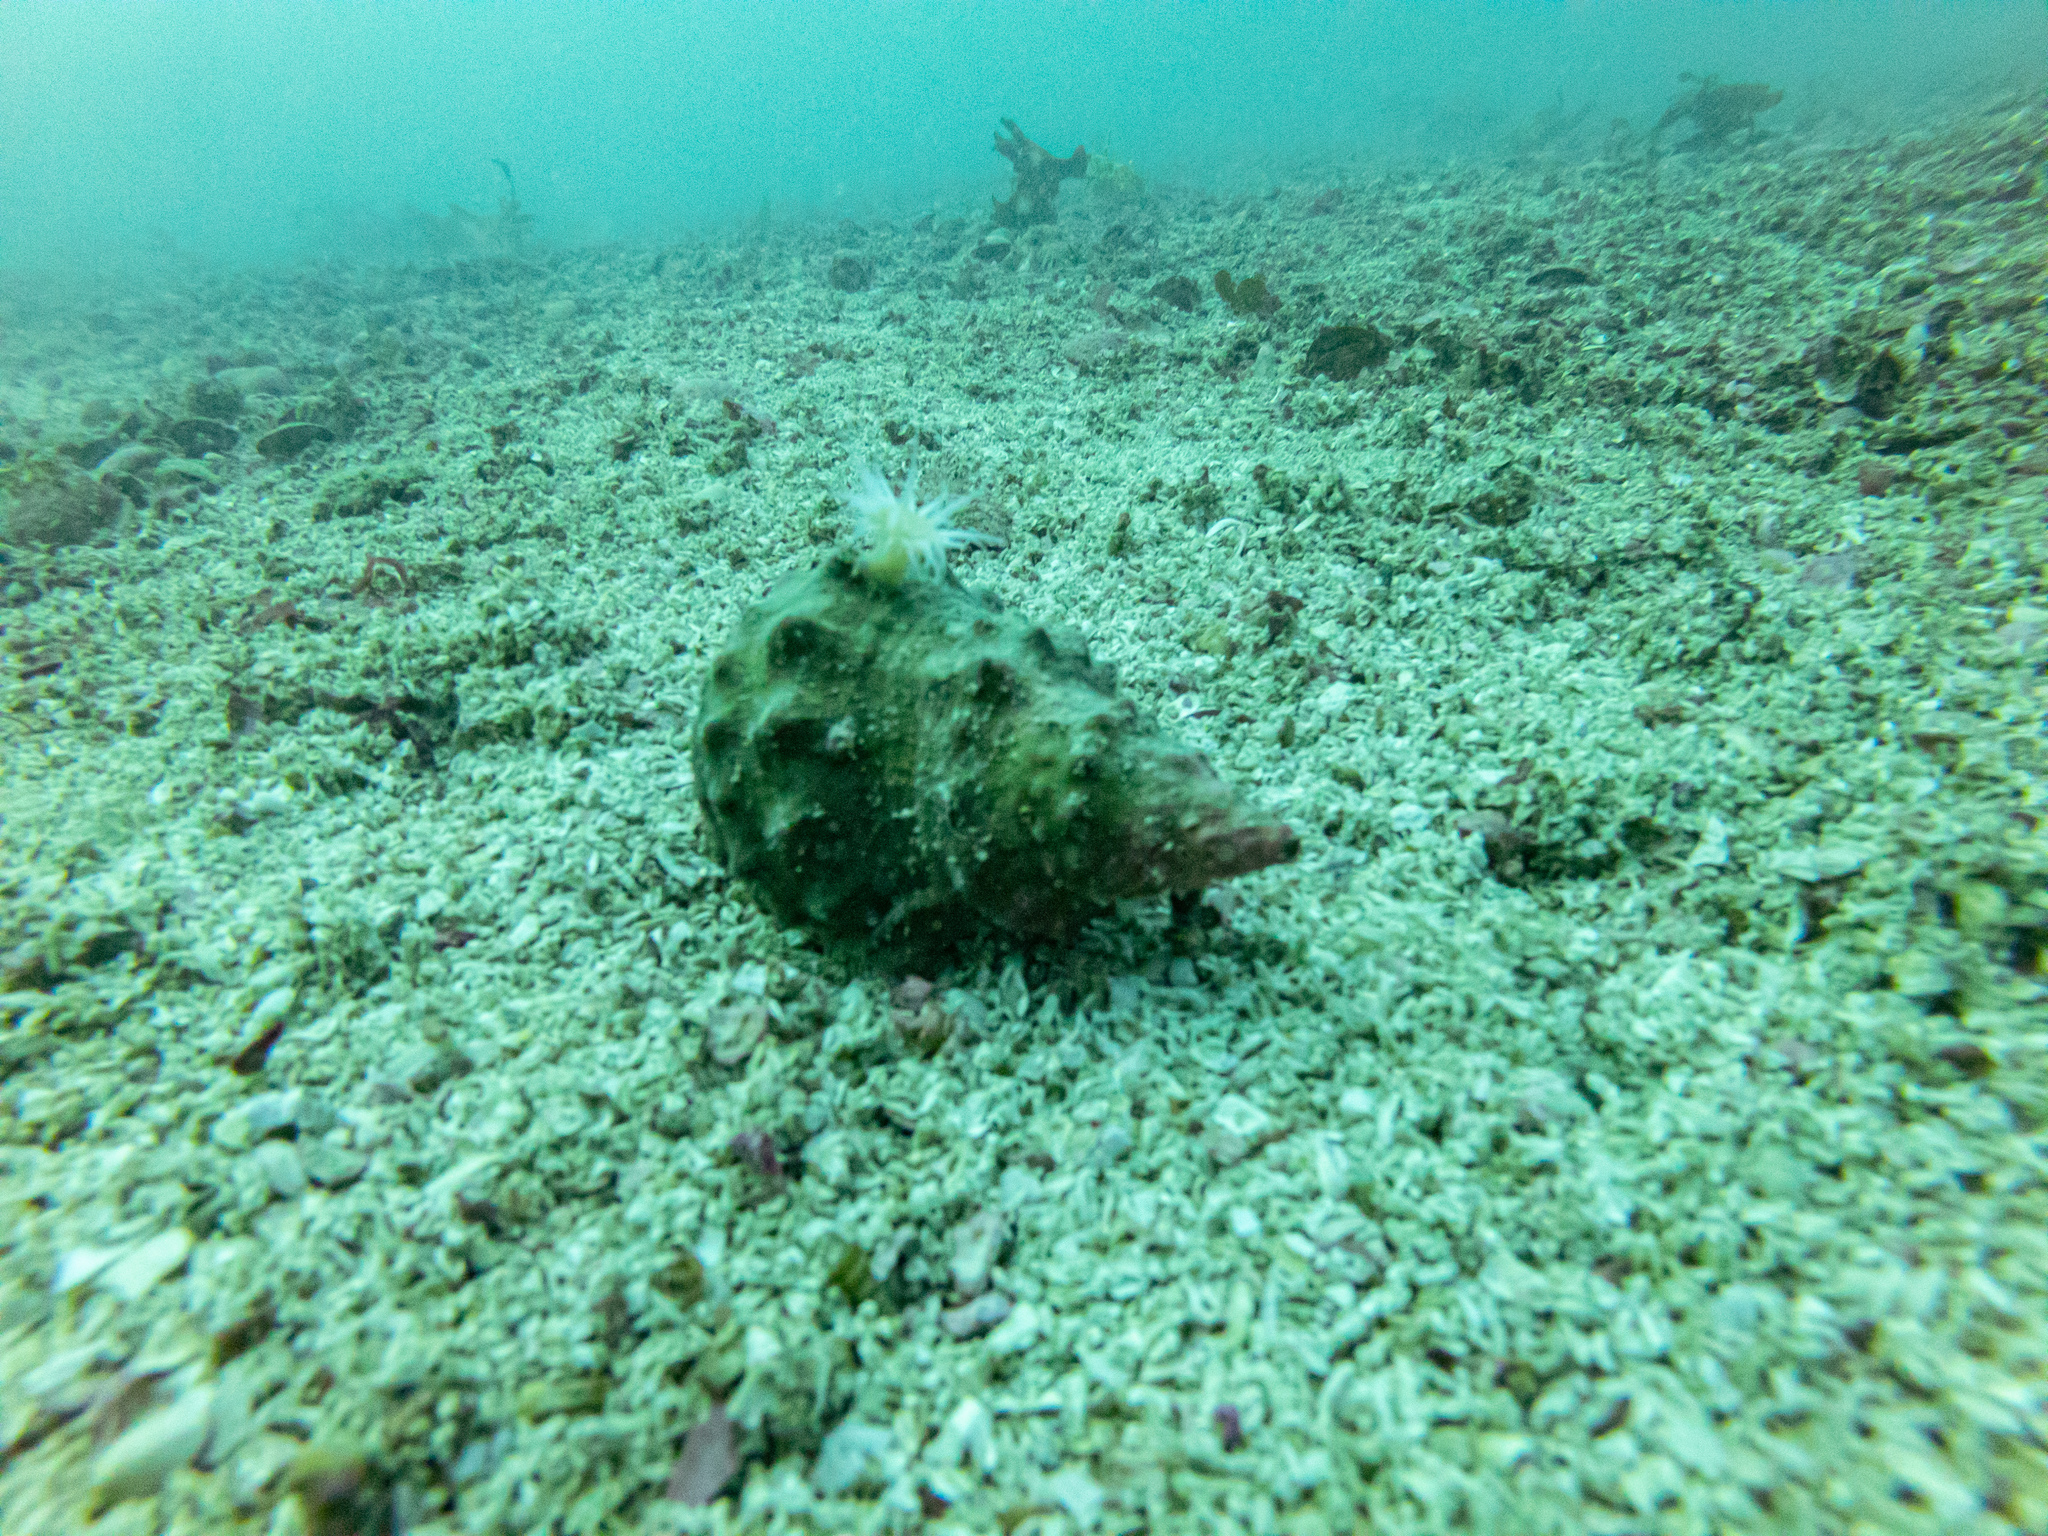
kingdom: Animalia
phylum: Mollusca
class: Gastropoda
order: Littorinimorpha
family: Charoniidae
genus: Charonia
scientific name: Charonia lampas
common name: Knobbed triton
